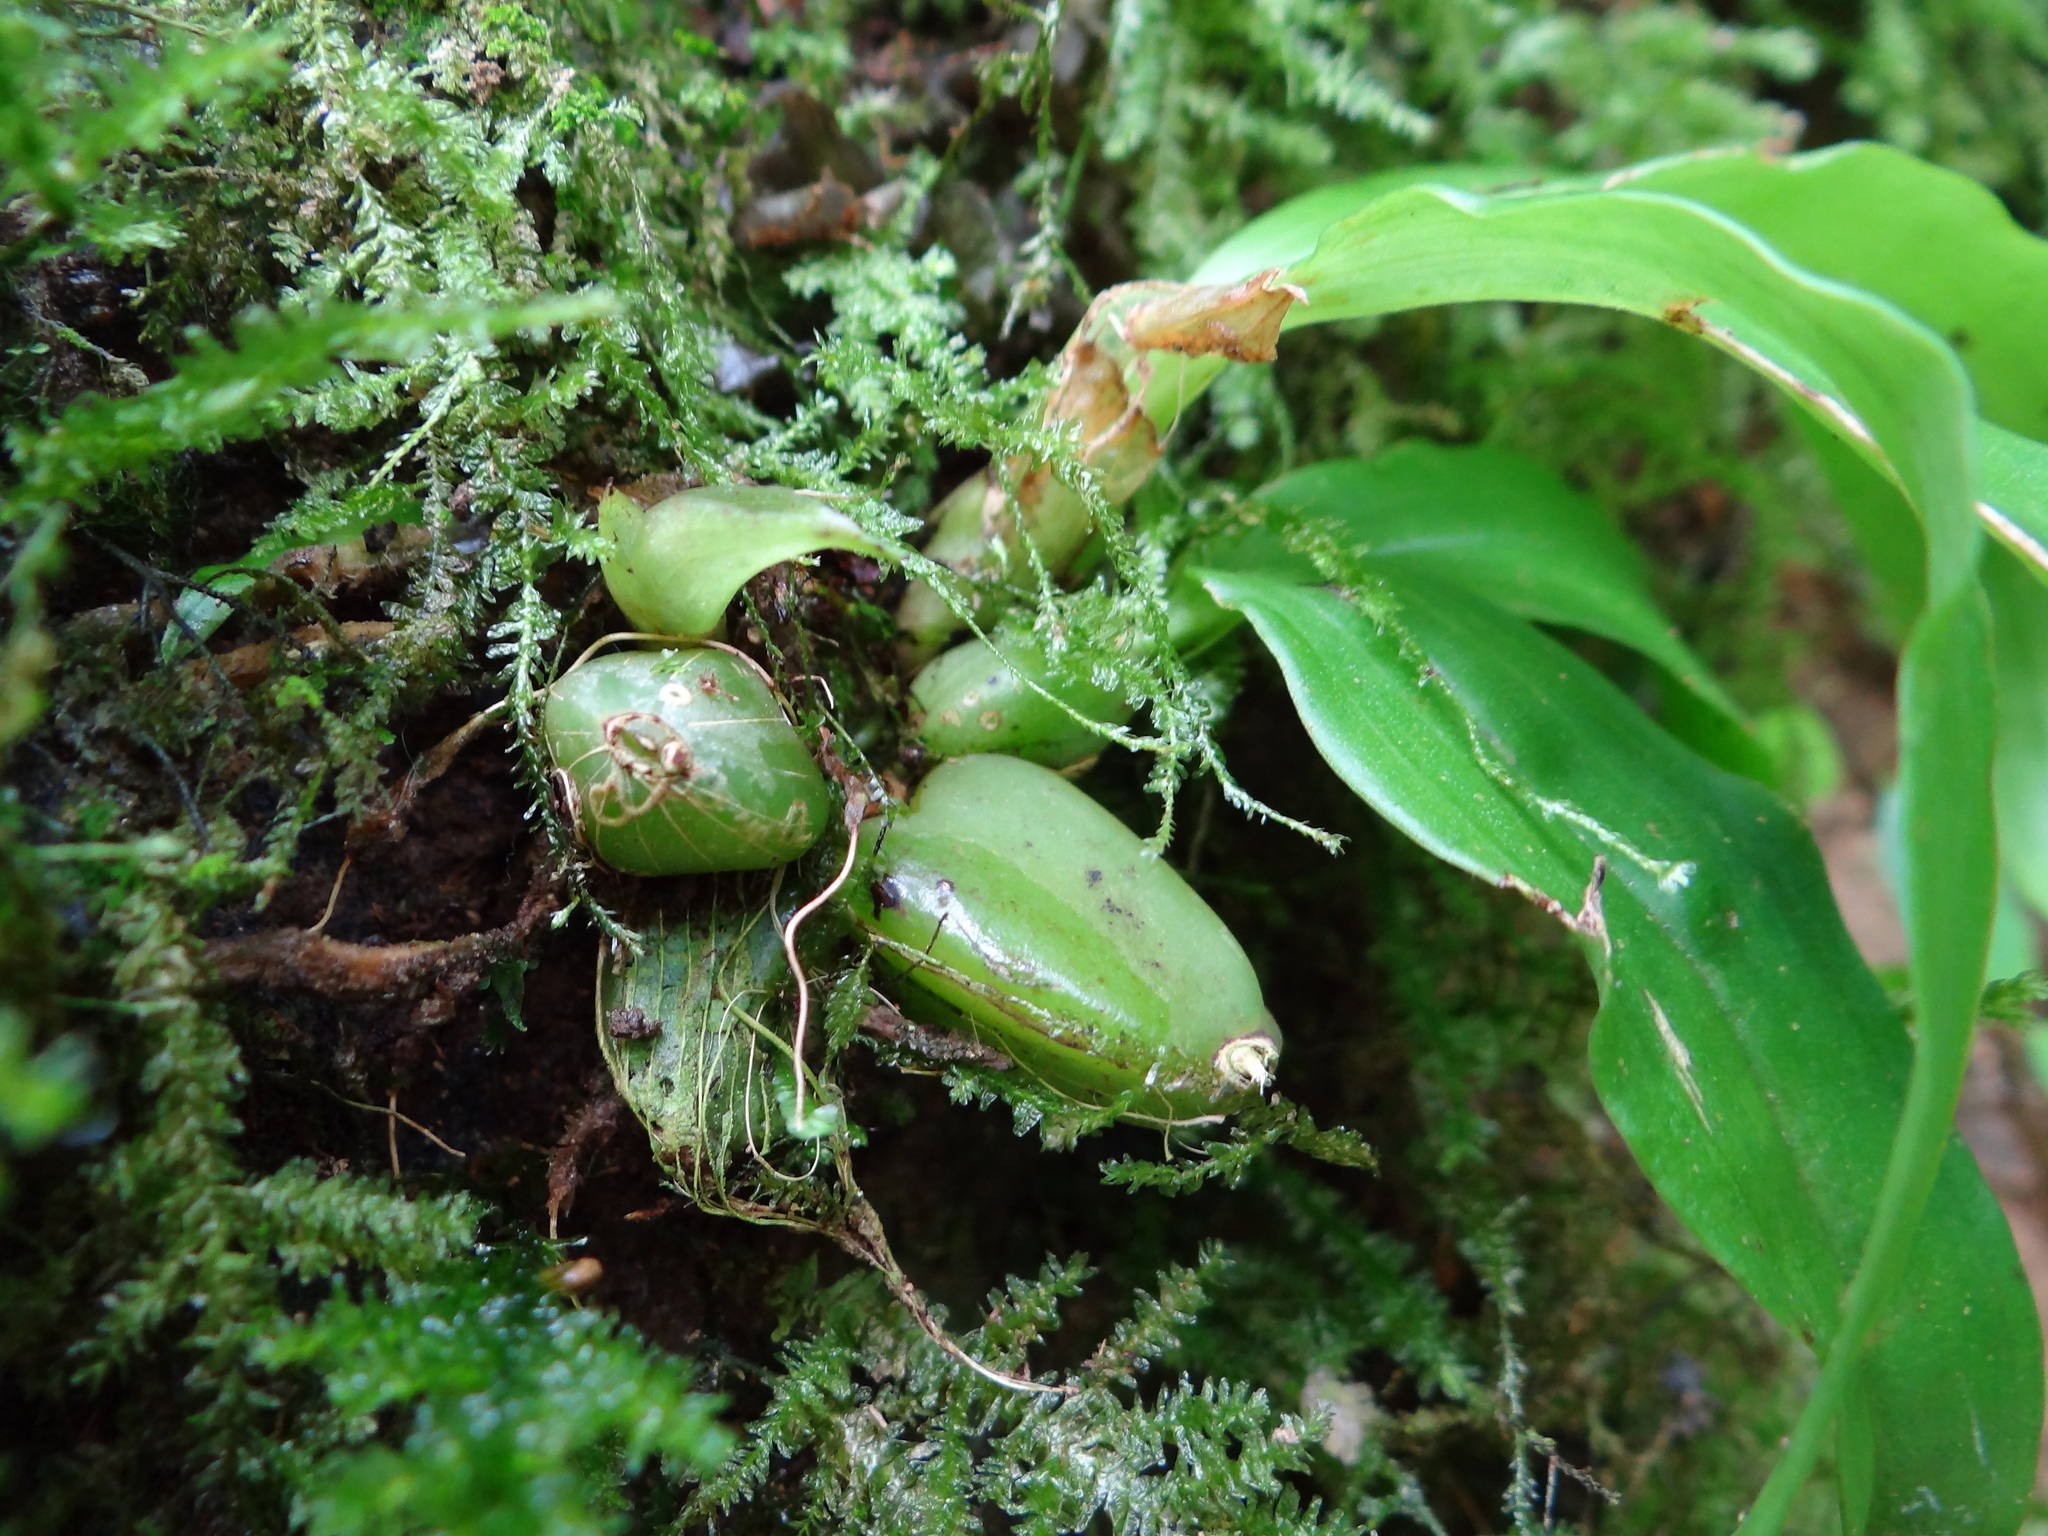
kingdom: Plantae
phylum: Tracheophyta
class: Liliopsida
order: Asparagales
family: Orchidaceae
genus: Eria
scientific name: Eria scabrilinguis
